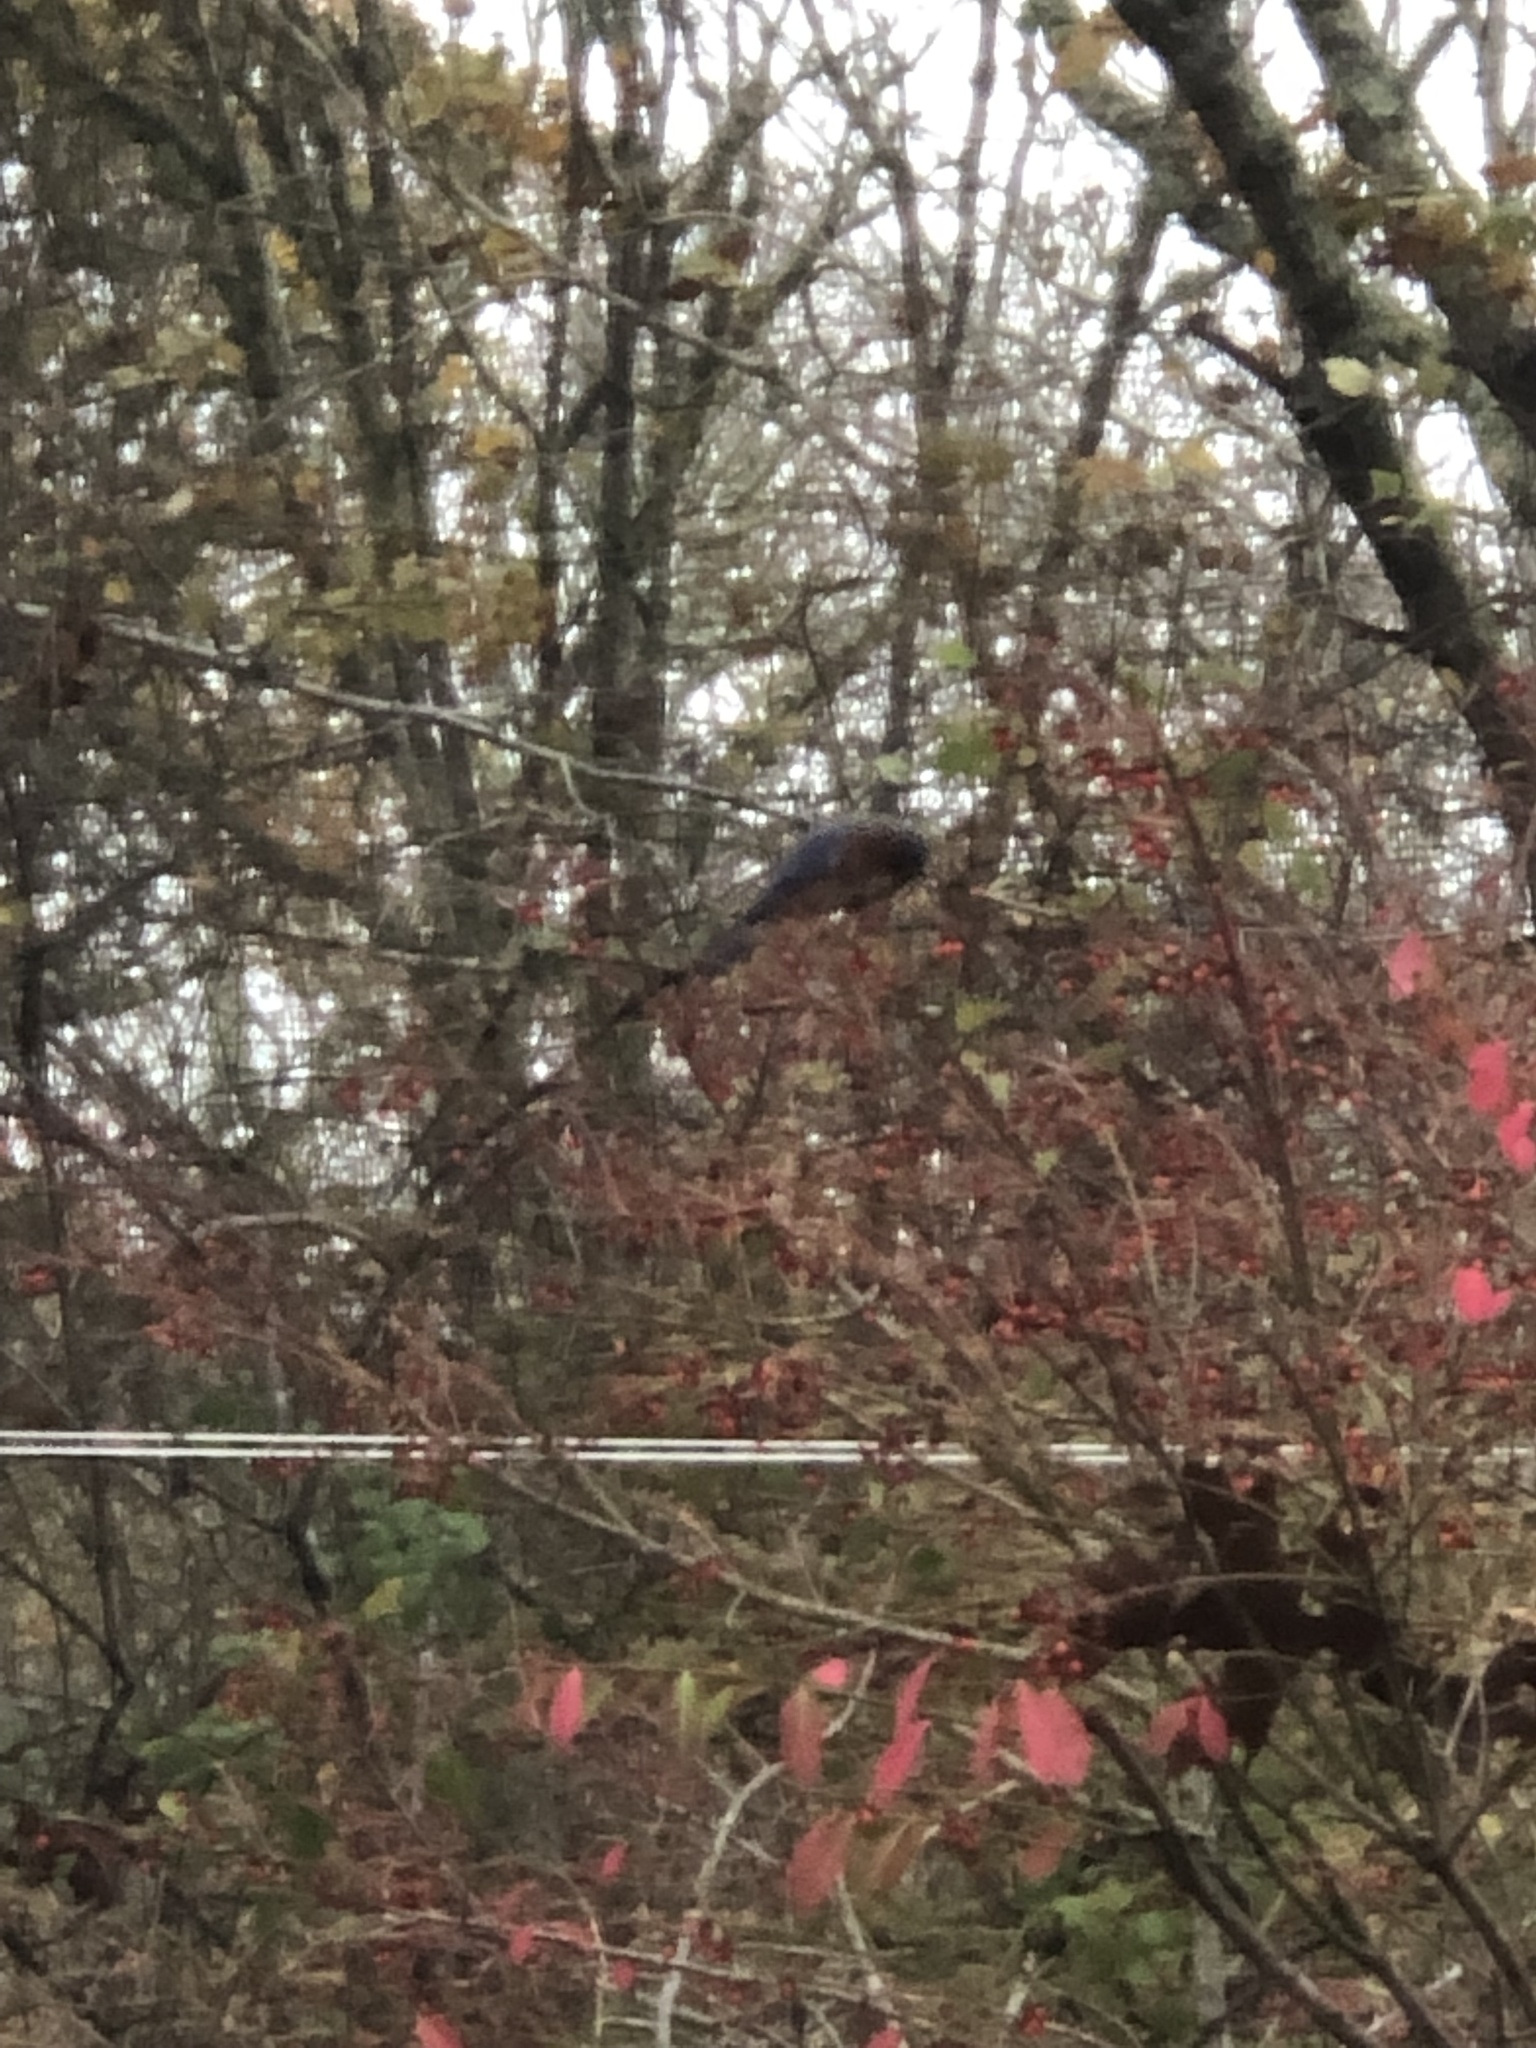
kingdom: Animalia
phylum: Chordata
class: Aves
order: Passeriformes
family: Turdidae
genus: Sialia
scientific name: Sialia sialis
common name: Eastern bluebird
